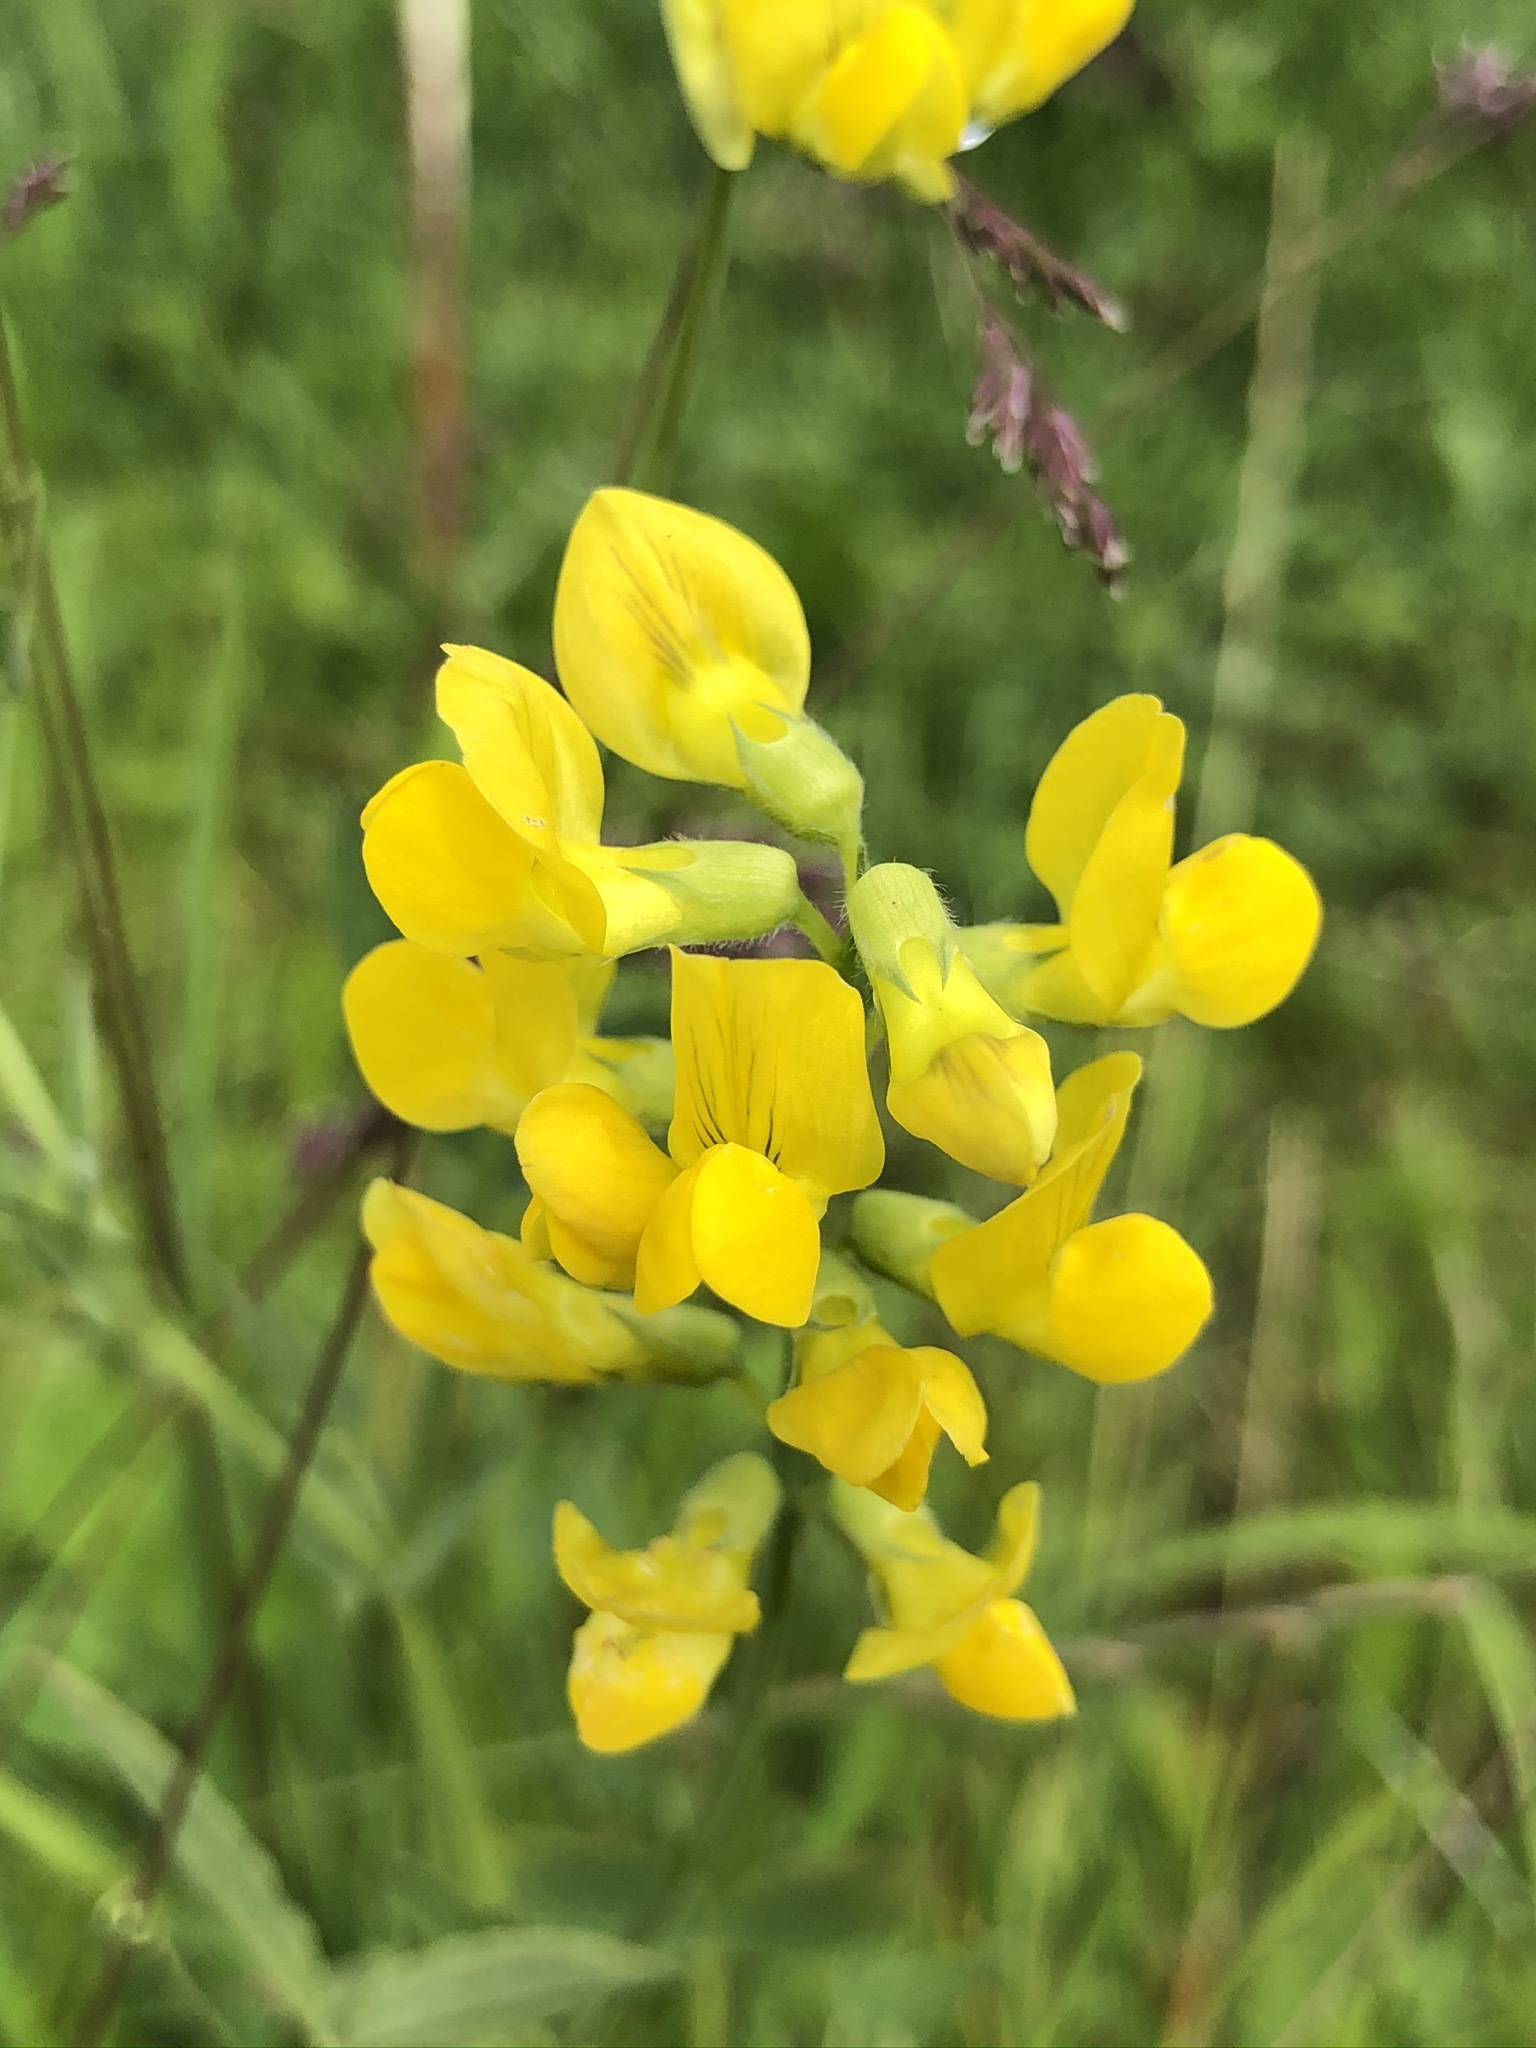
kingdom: Plantae
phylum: Tracheophyta
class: Magnoliopsida
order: Fabales
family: Fabaceae
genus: Lathyrus
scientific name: Lathyrus pratensis
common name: Meadow vetchling
